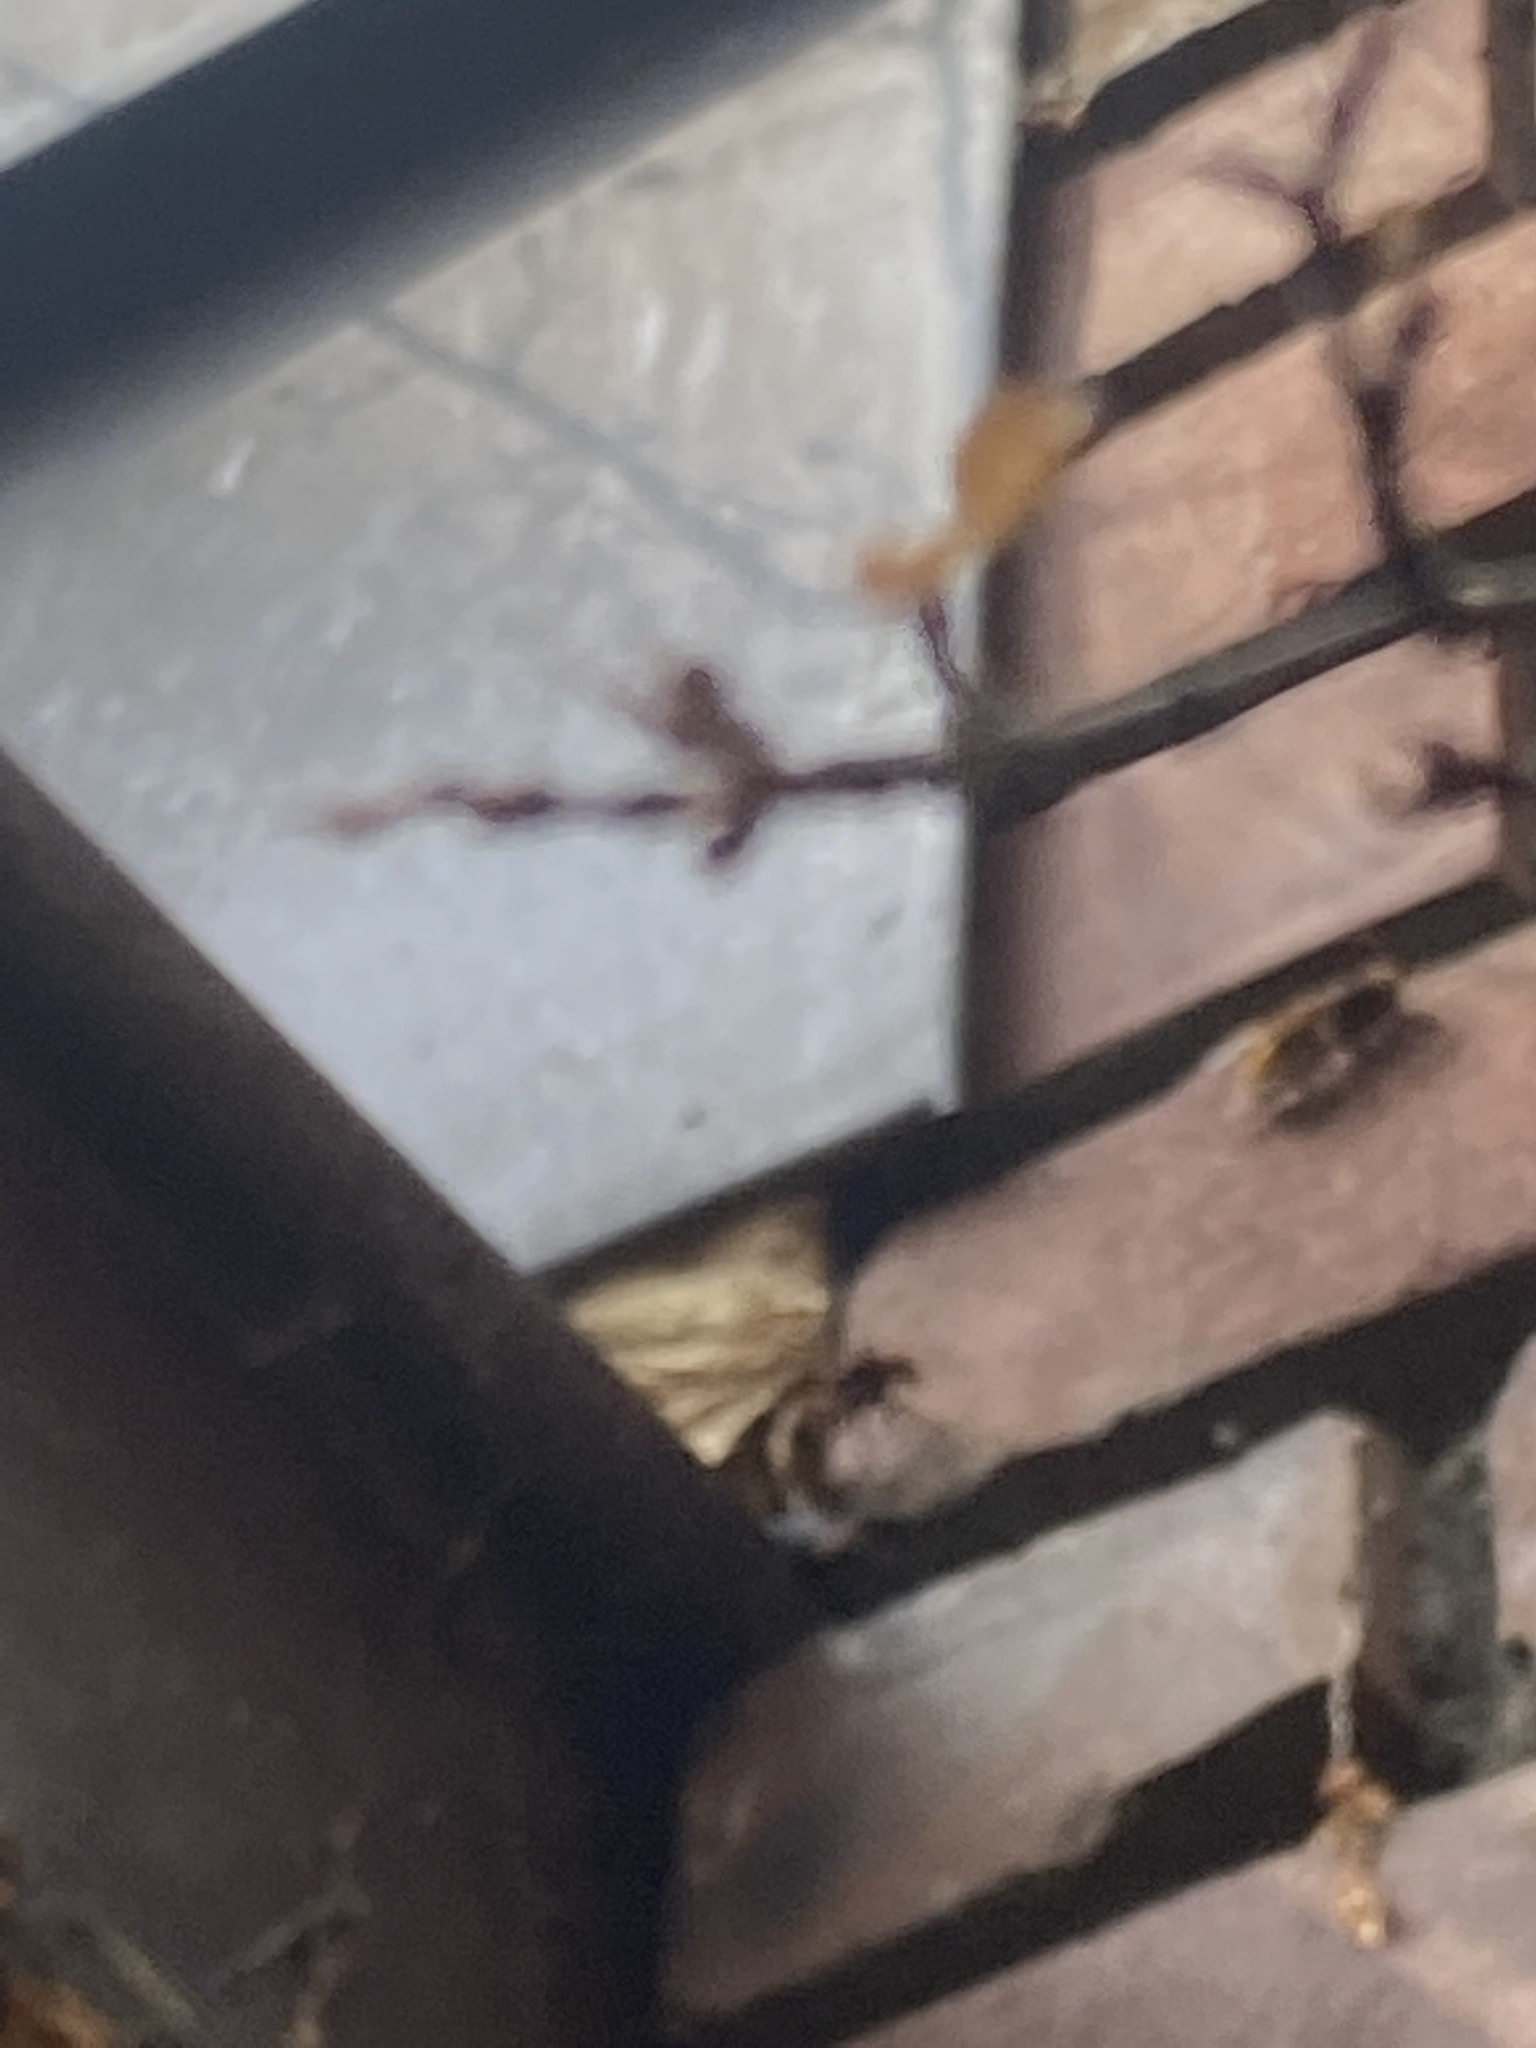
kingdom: Animalia
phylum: Arthropoda
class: Insecta
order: Hymenoptera
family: Vespidae
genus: Vespa
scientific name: Vespa crabro
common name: Hornet
